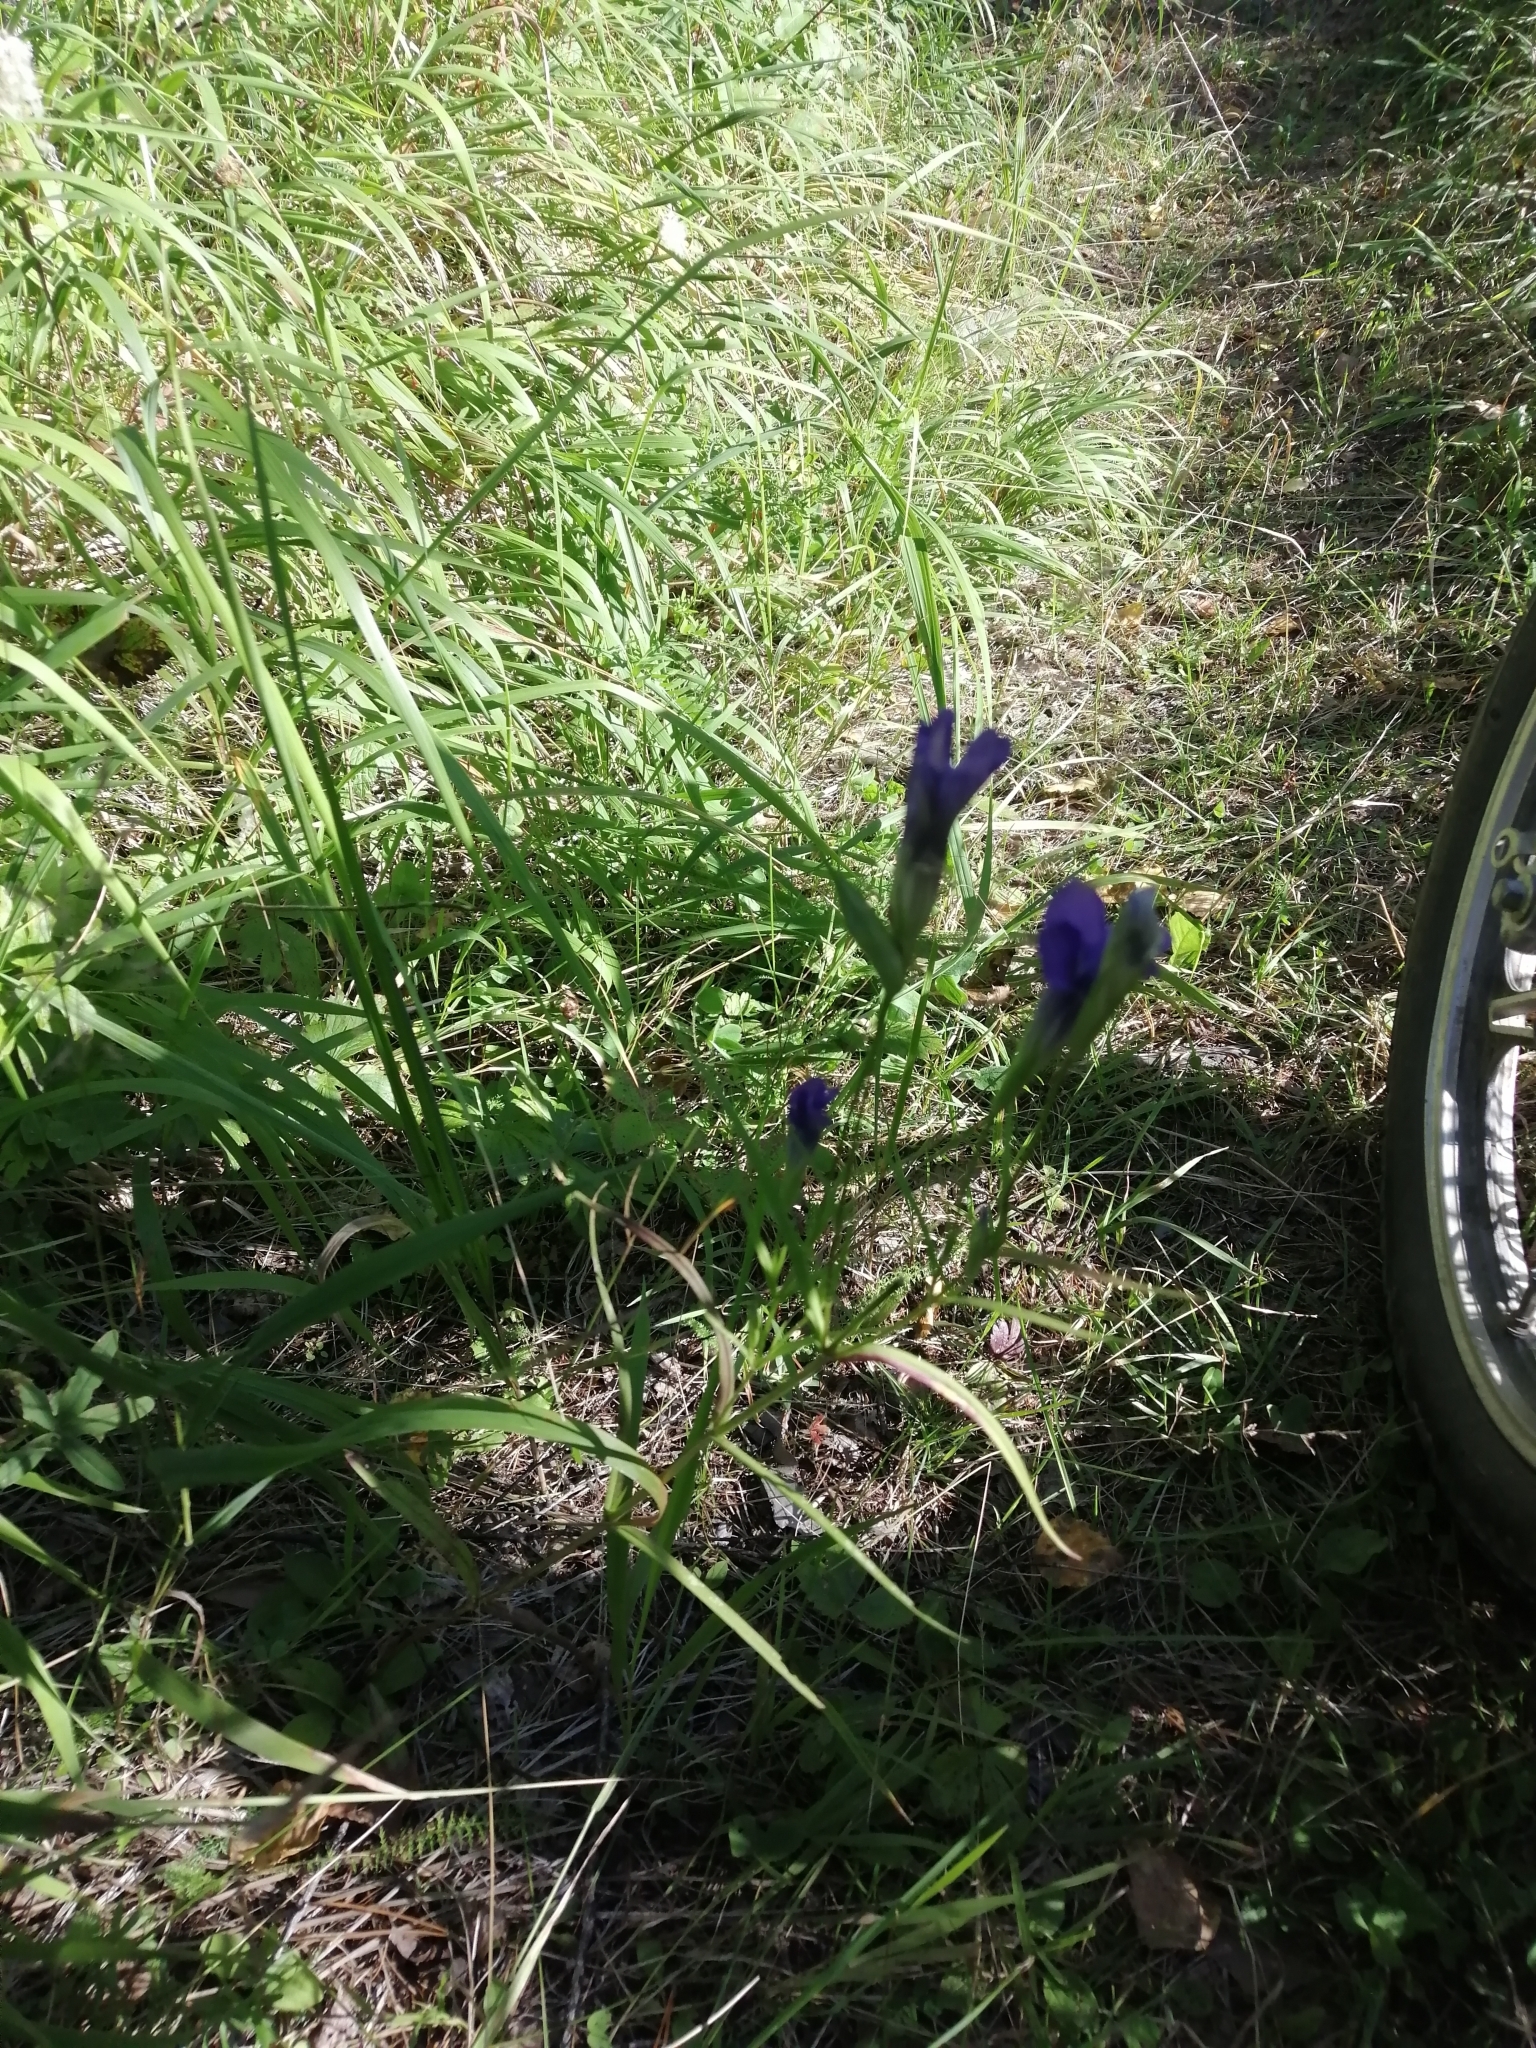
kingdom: Plantae
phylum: Tracheophyta
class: Magnoliopsida
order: Gentianales
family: Gentianaceae
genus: Gentianopsis
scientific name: Gentianopsis barbata
